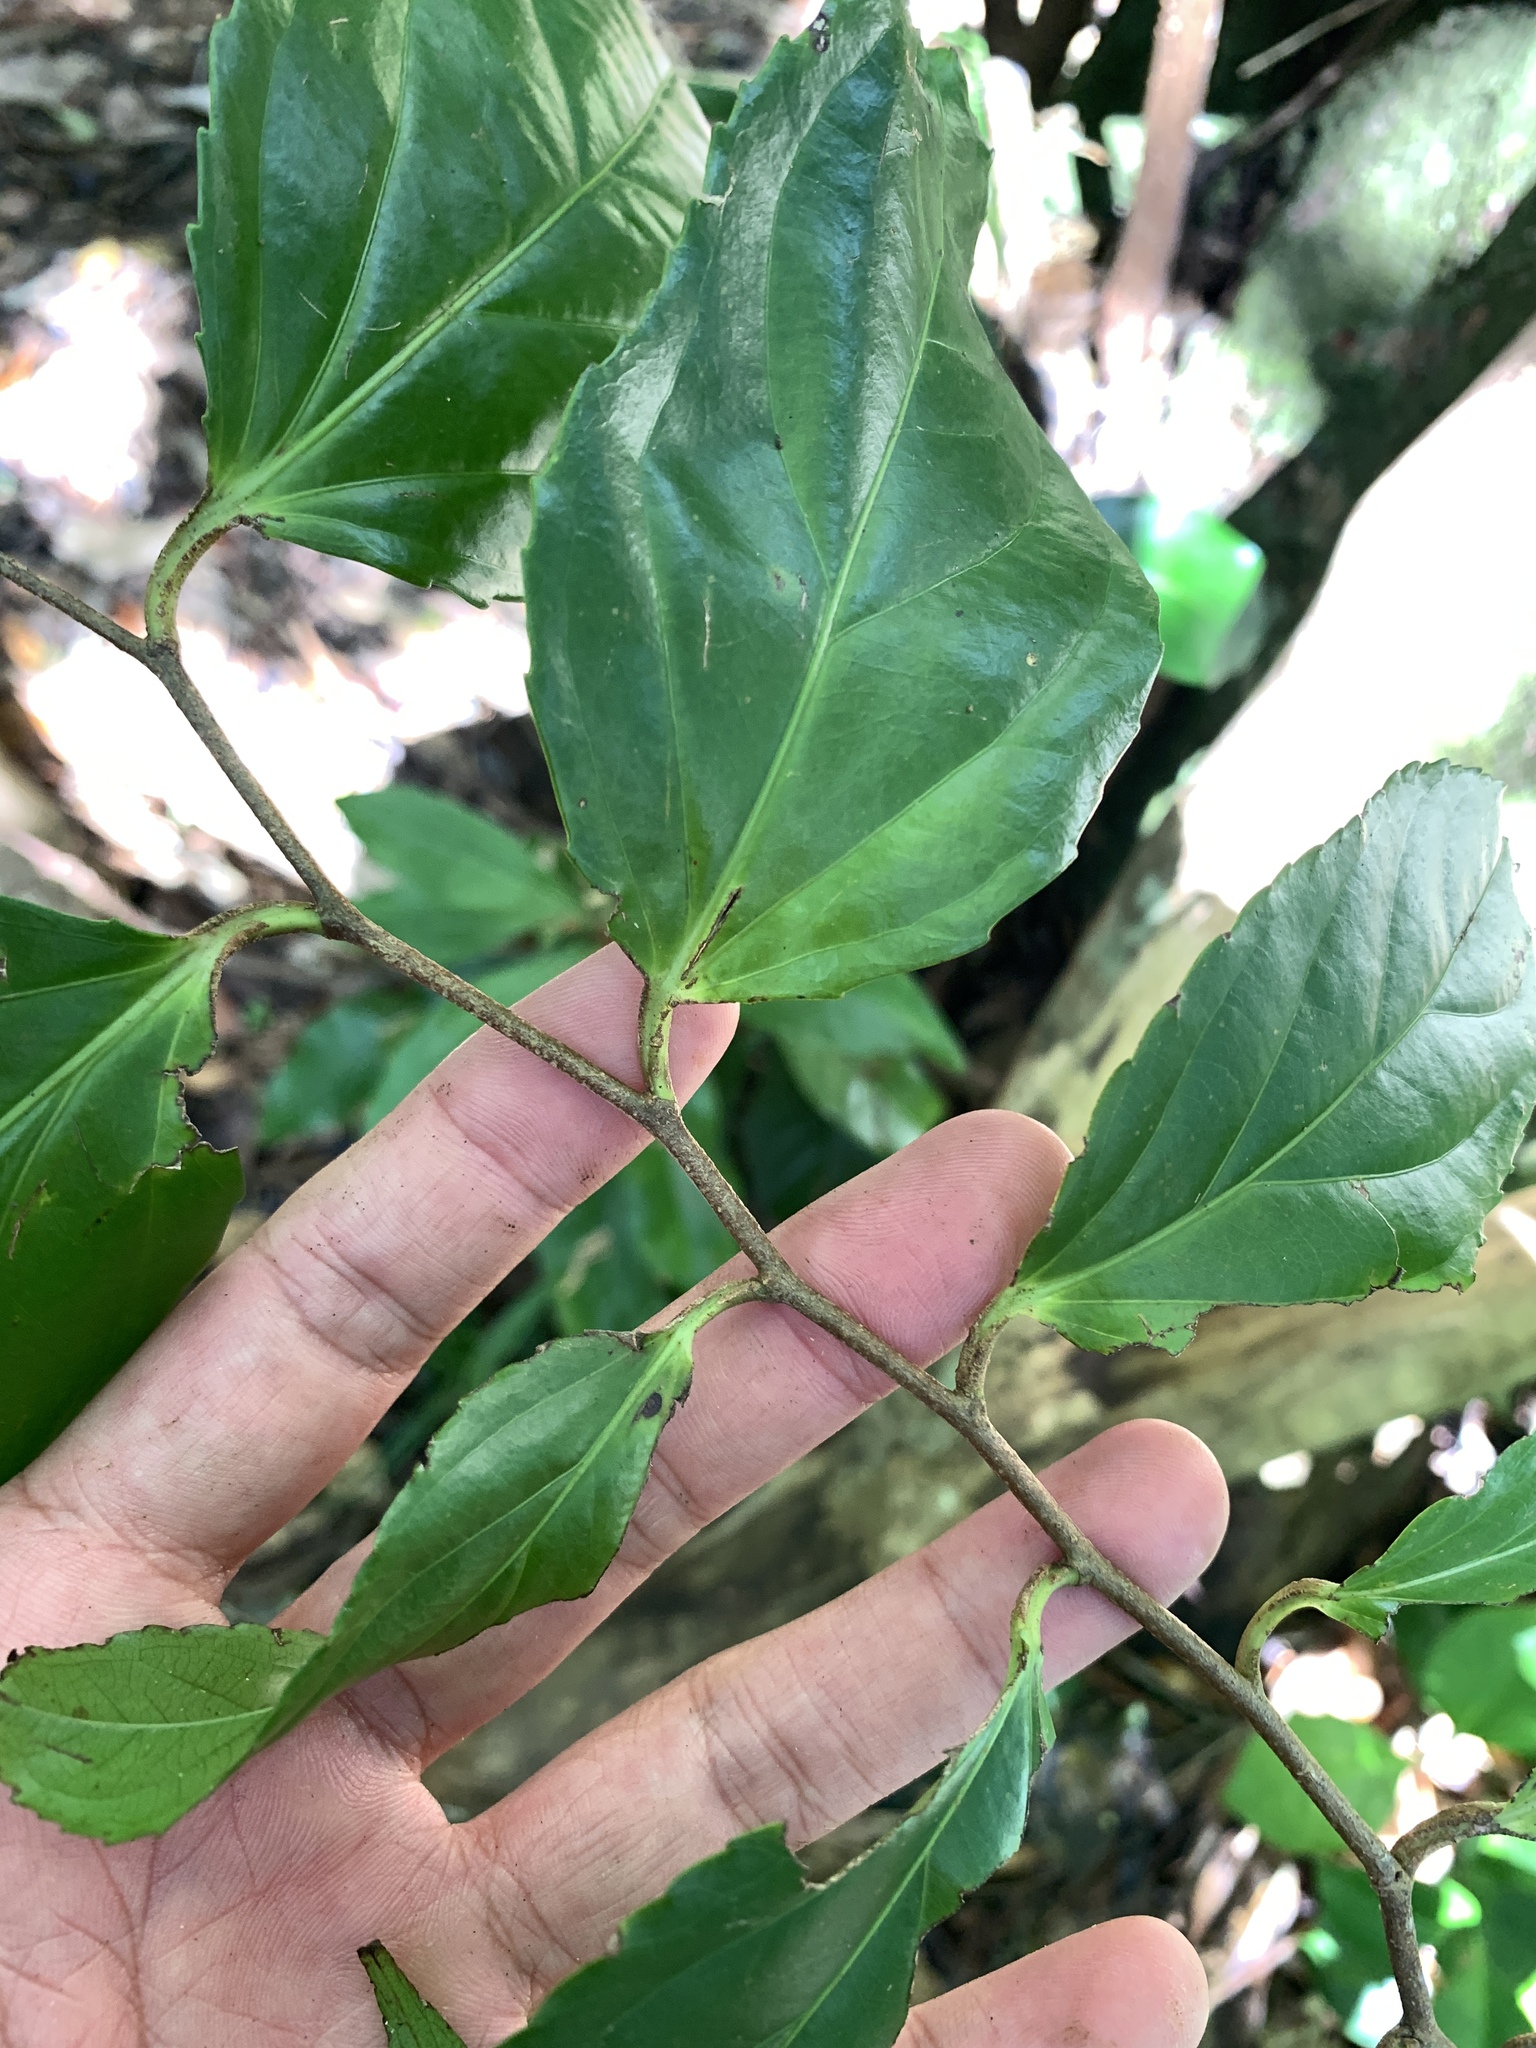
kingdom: Plantae
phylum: Tracheophyta
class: Magnoliopsida
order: Malpighiales
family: Salicaceae
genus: Flacourtia
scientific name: Flacourtia rukam
